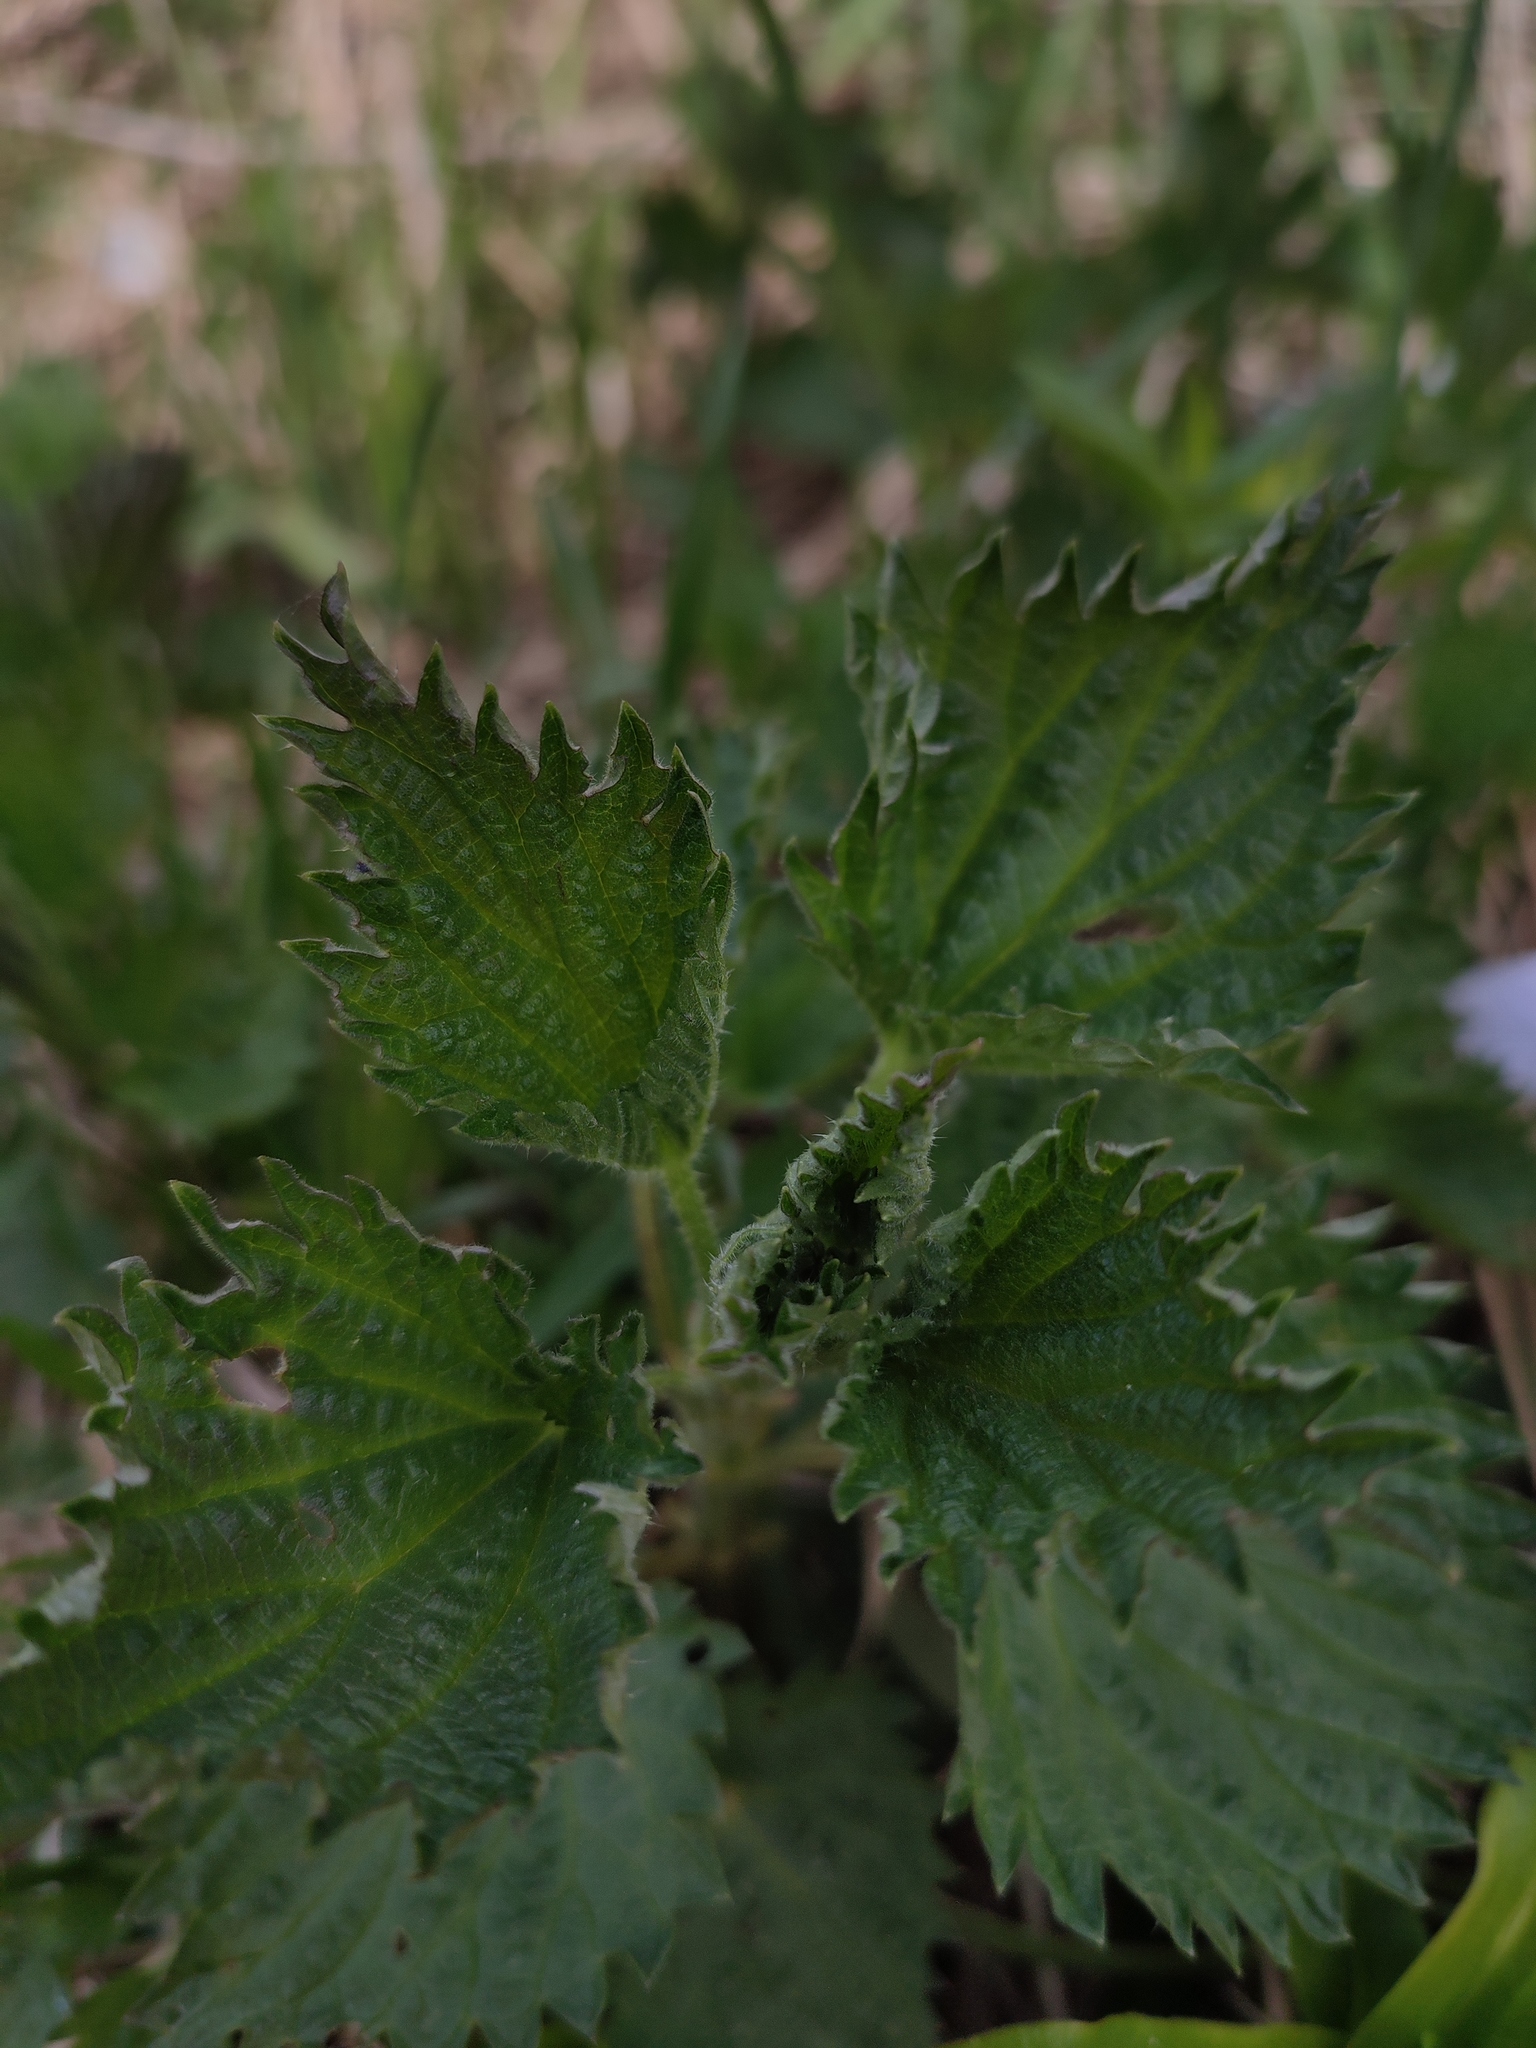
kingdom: Plantae
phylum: Tracheophyta
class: Magnoliopsida
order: Rosales
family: Urticaceae
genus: Urtica
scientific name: Urtica dioica
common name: Common nettle
